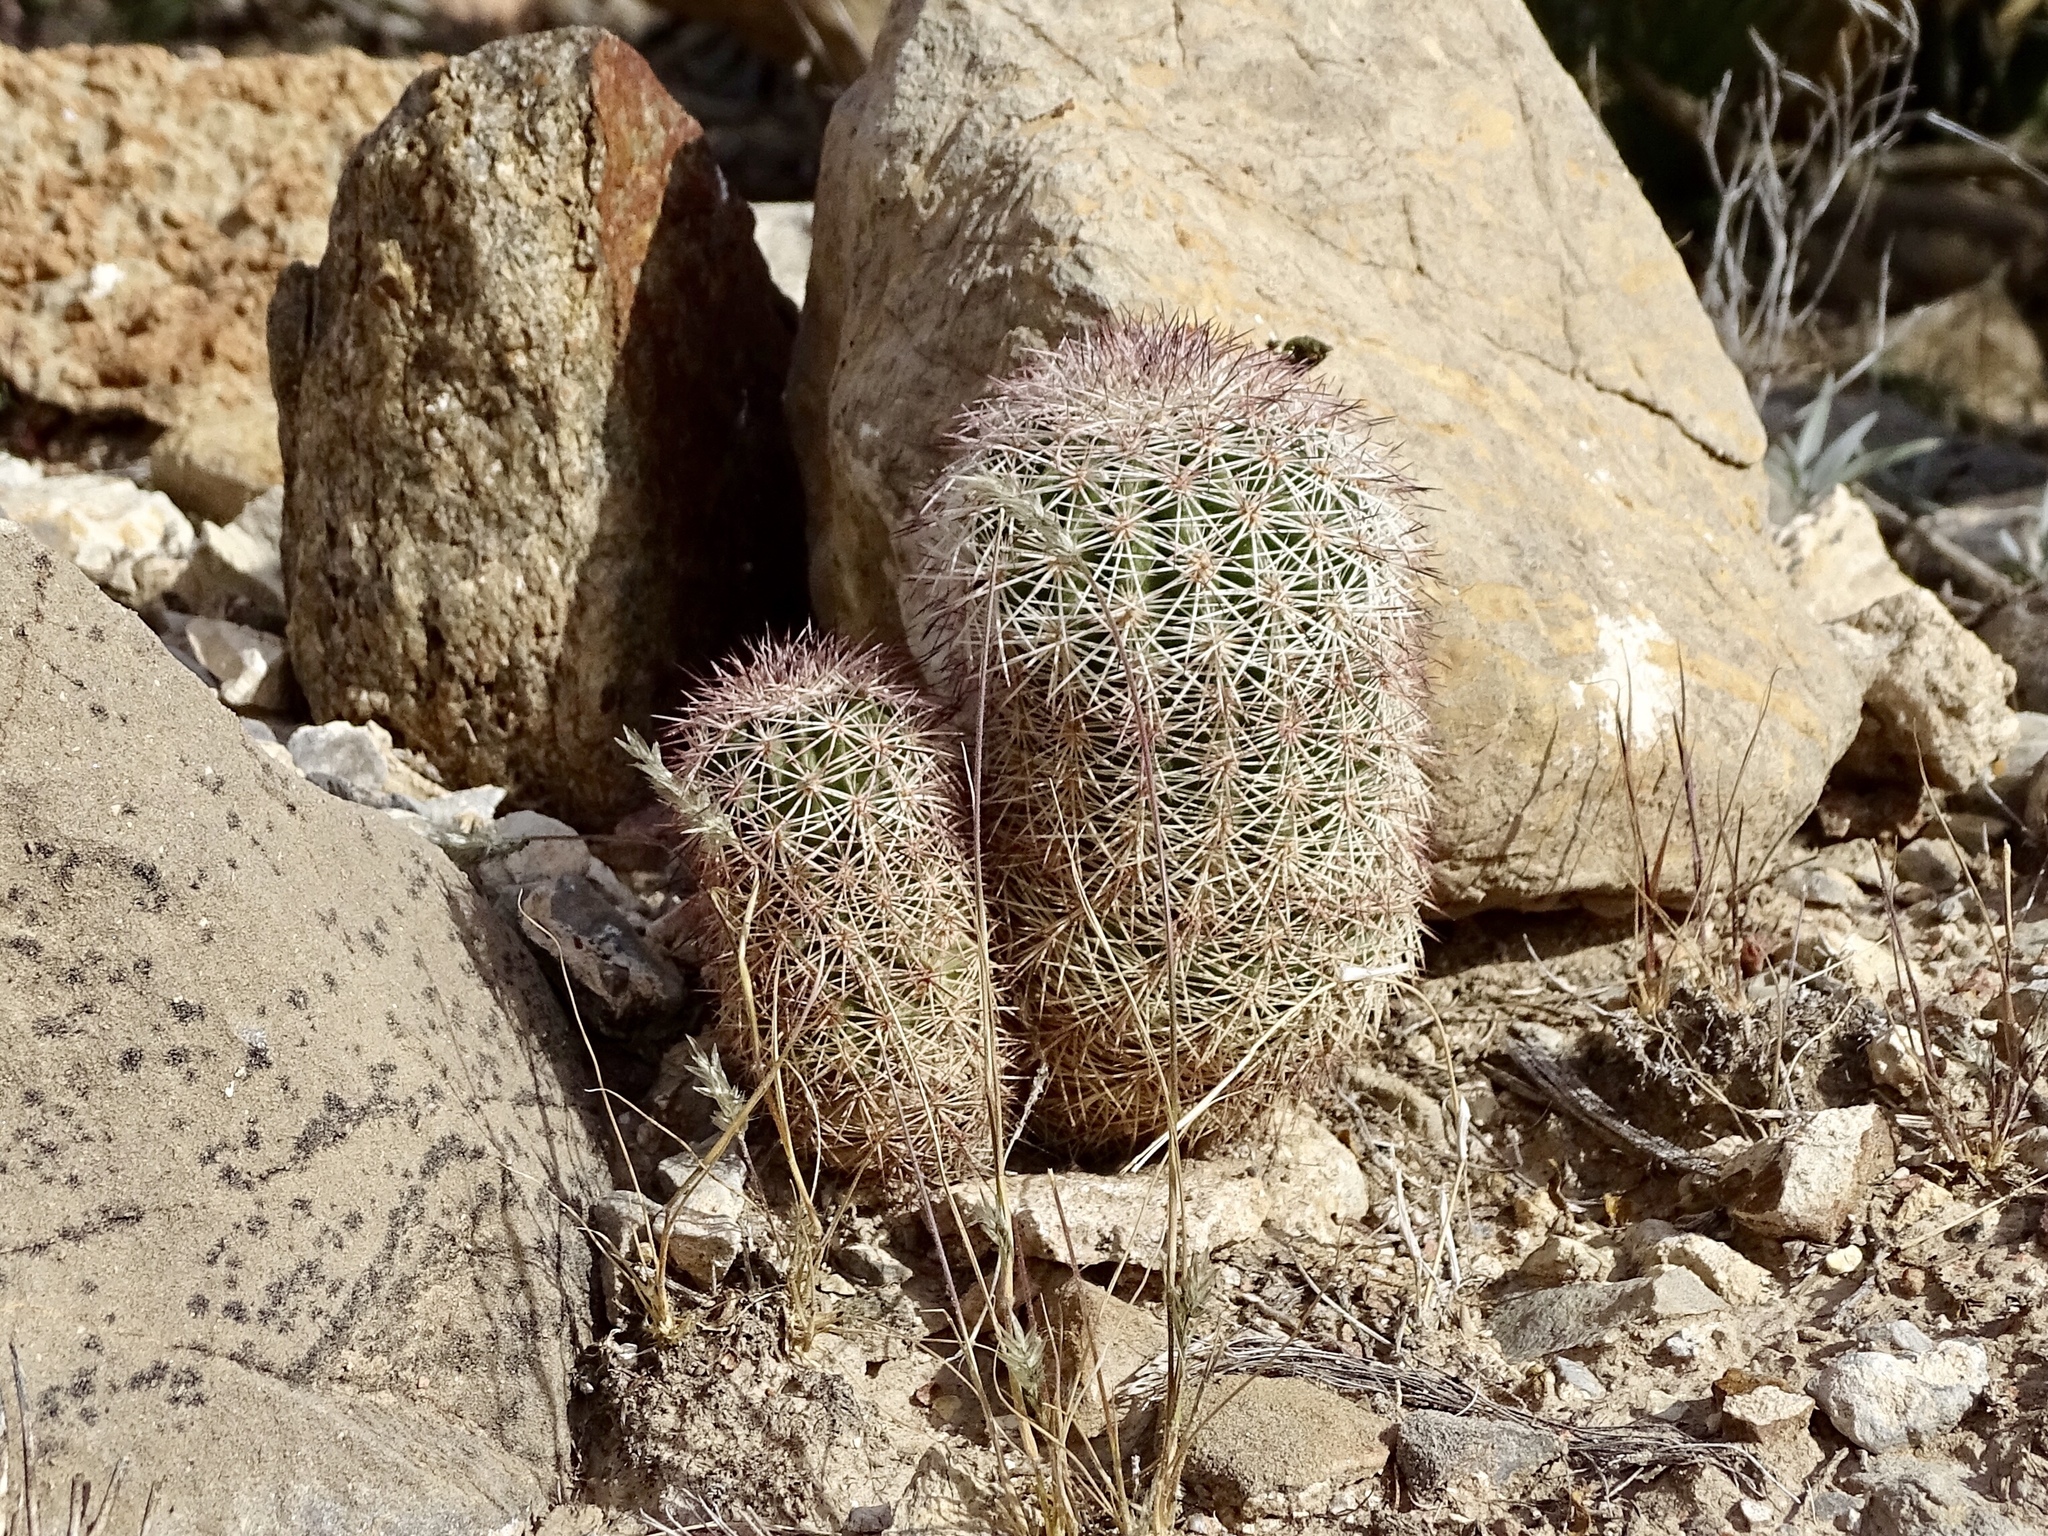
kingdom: Plantae
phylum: Tracheophyta
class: Magnoliopsida
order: Caryophyllales
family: Cactaceae
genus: Echinocereus
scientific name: Echinocereus dasyacanthus
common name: Spiny hedgehog cactus
